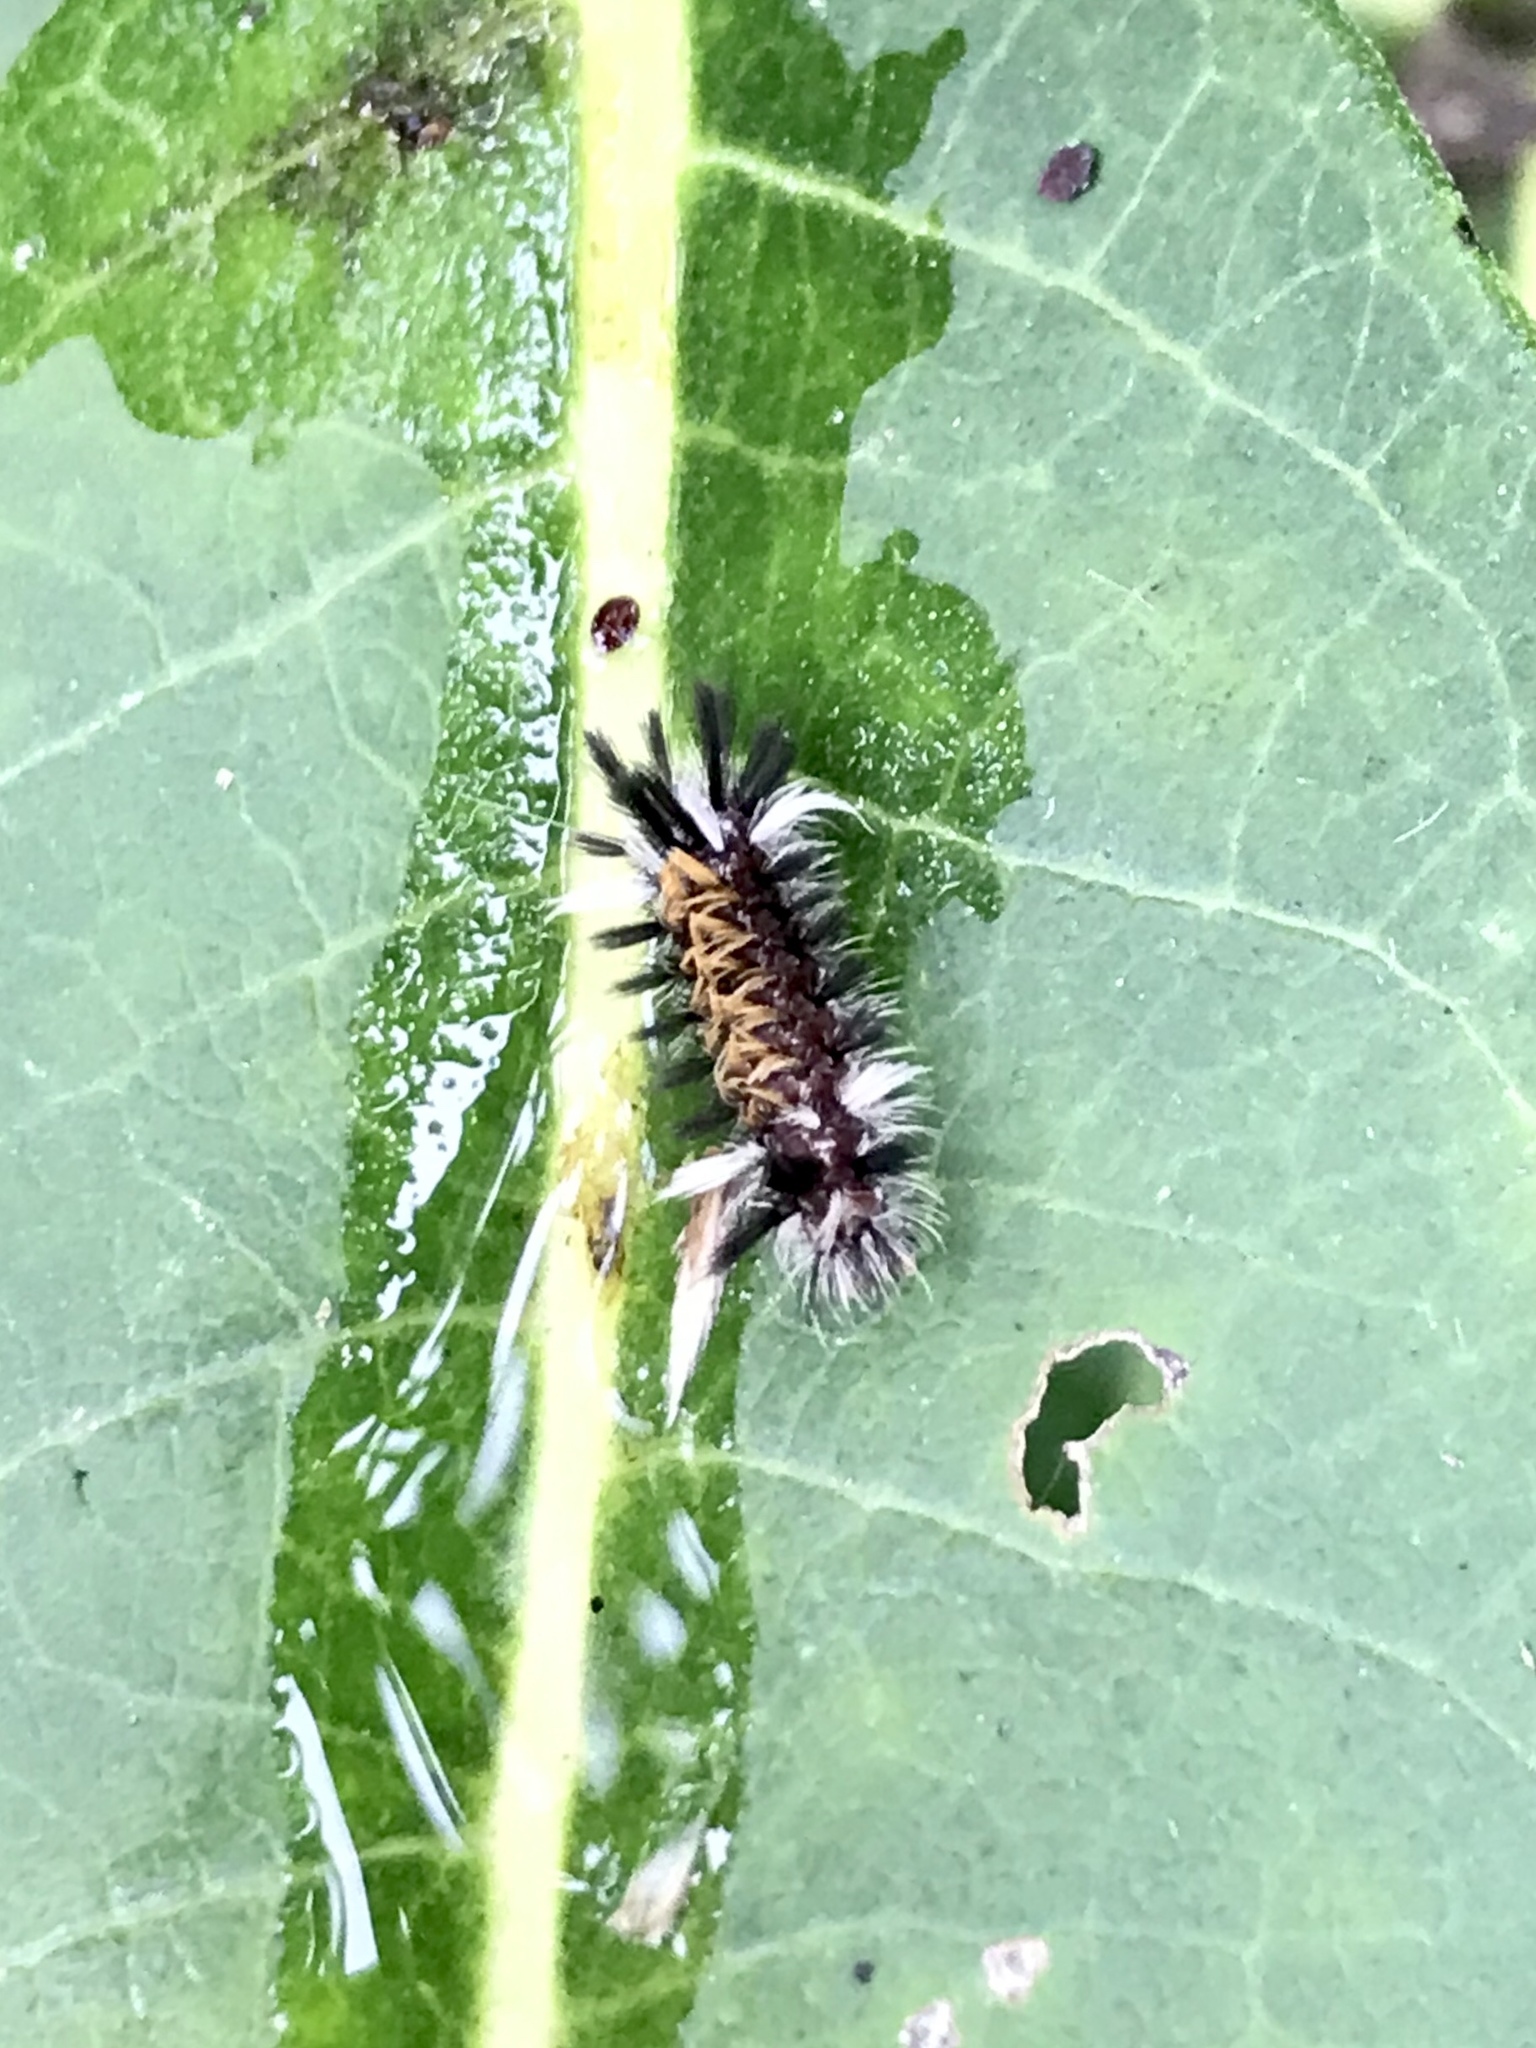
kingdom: Animalia
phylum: Arthropoda
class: Insecta
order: Lepidoptera
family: Erebidae
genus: Euchaetes
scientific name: Euchaetes egle
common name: Milkweed tussock moth
